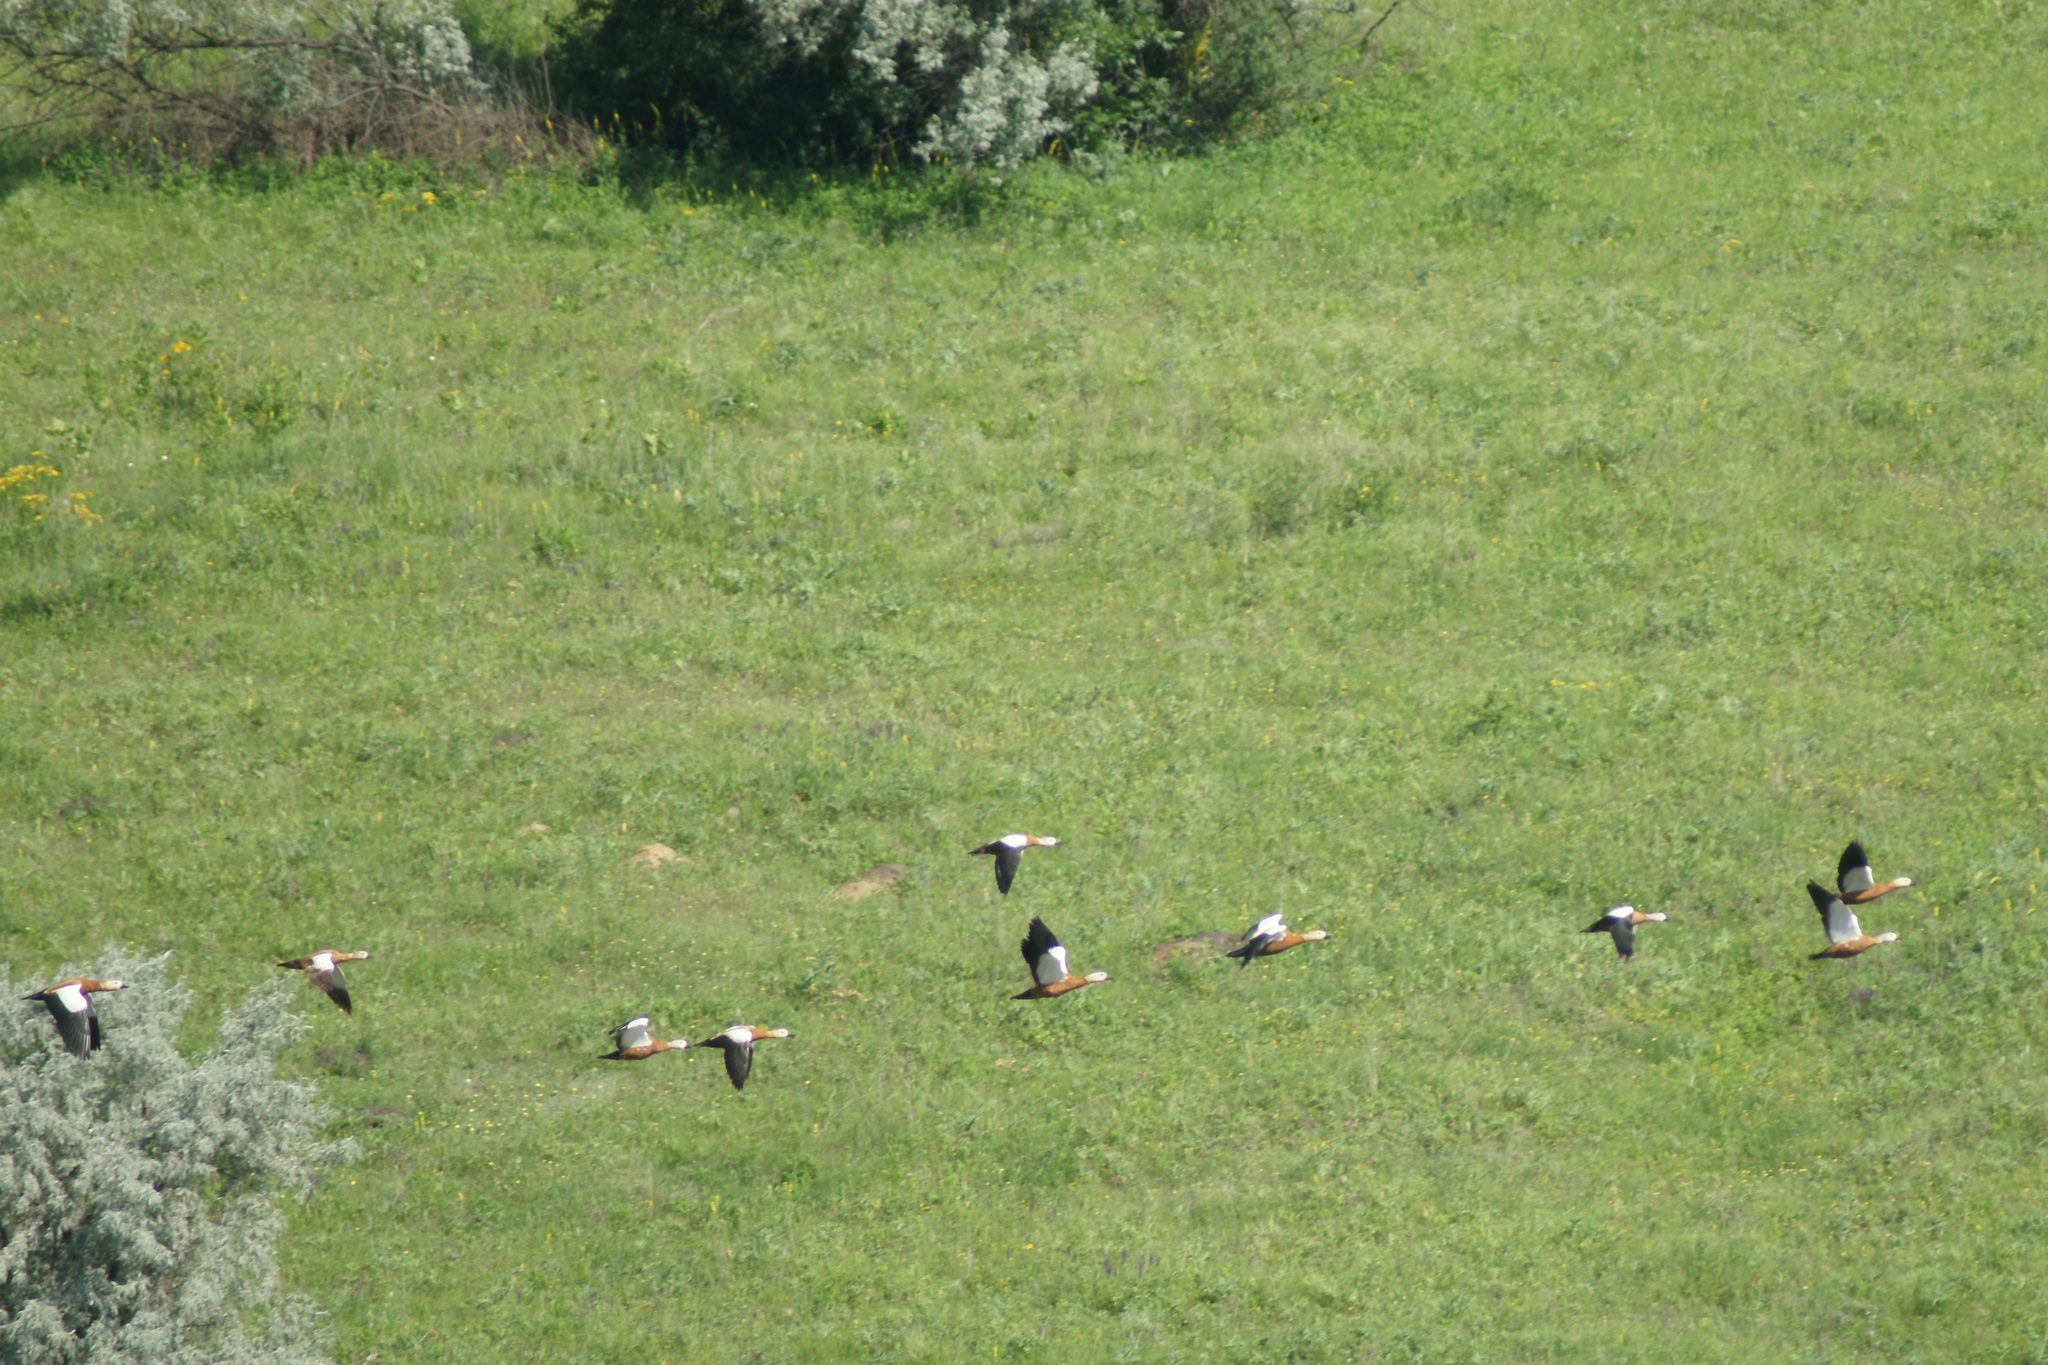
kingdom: Animalia
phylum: Chordata
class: Aves
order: Anseriformes
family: Anatidae
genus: Tadorna
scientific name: Tadorna ferruginea
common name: Ruddy shelduck
